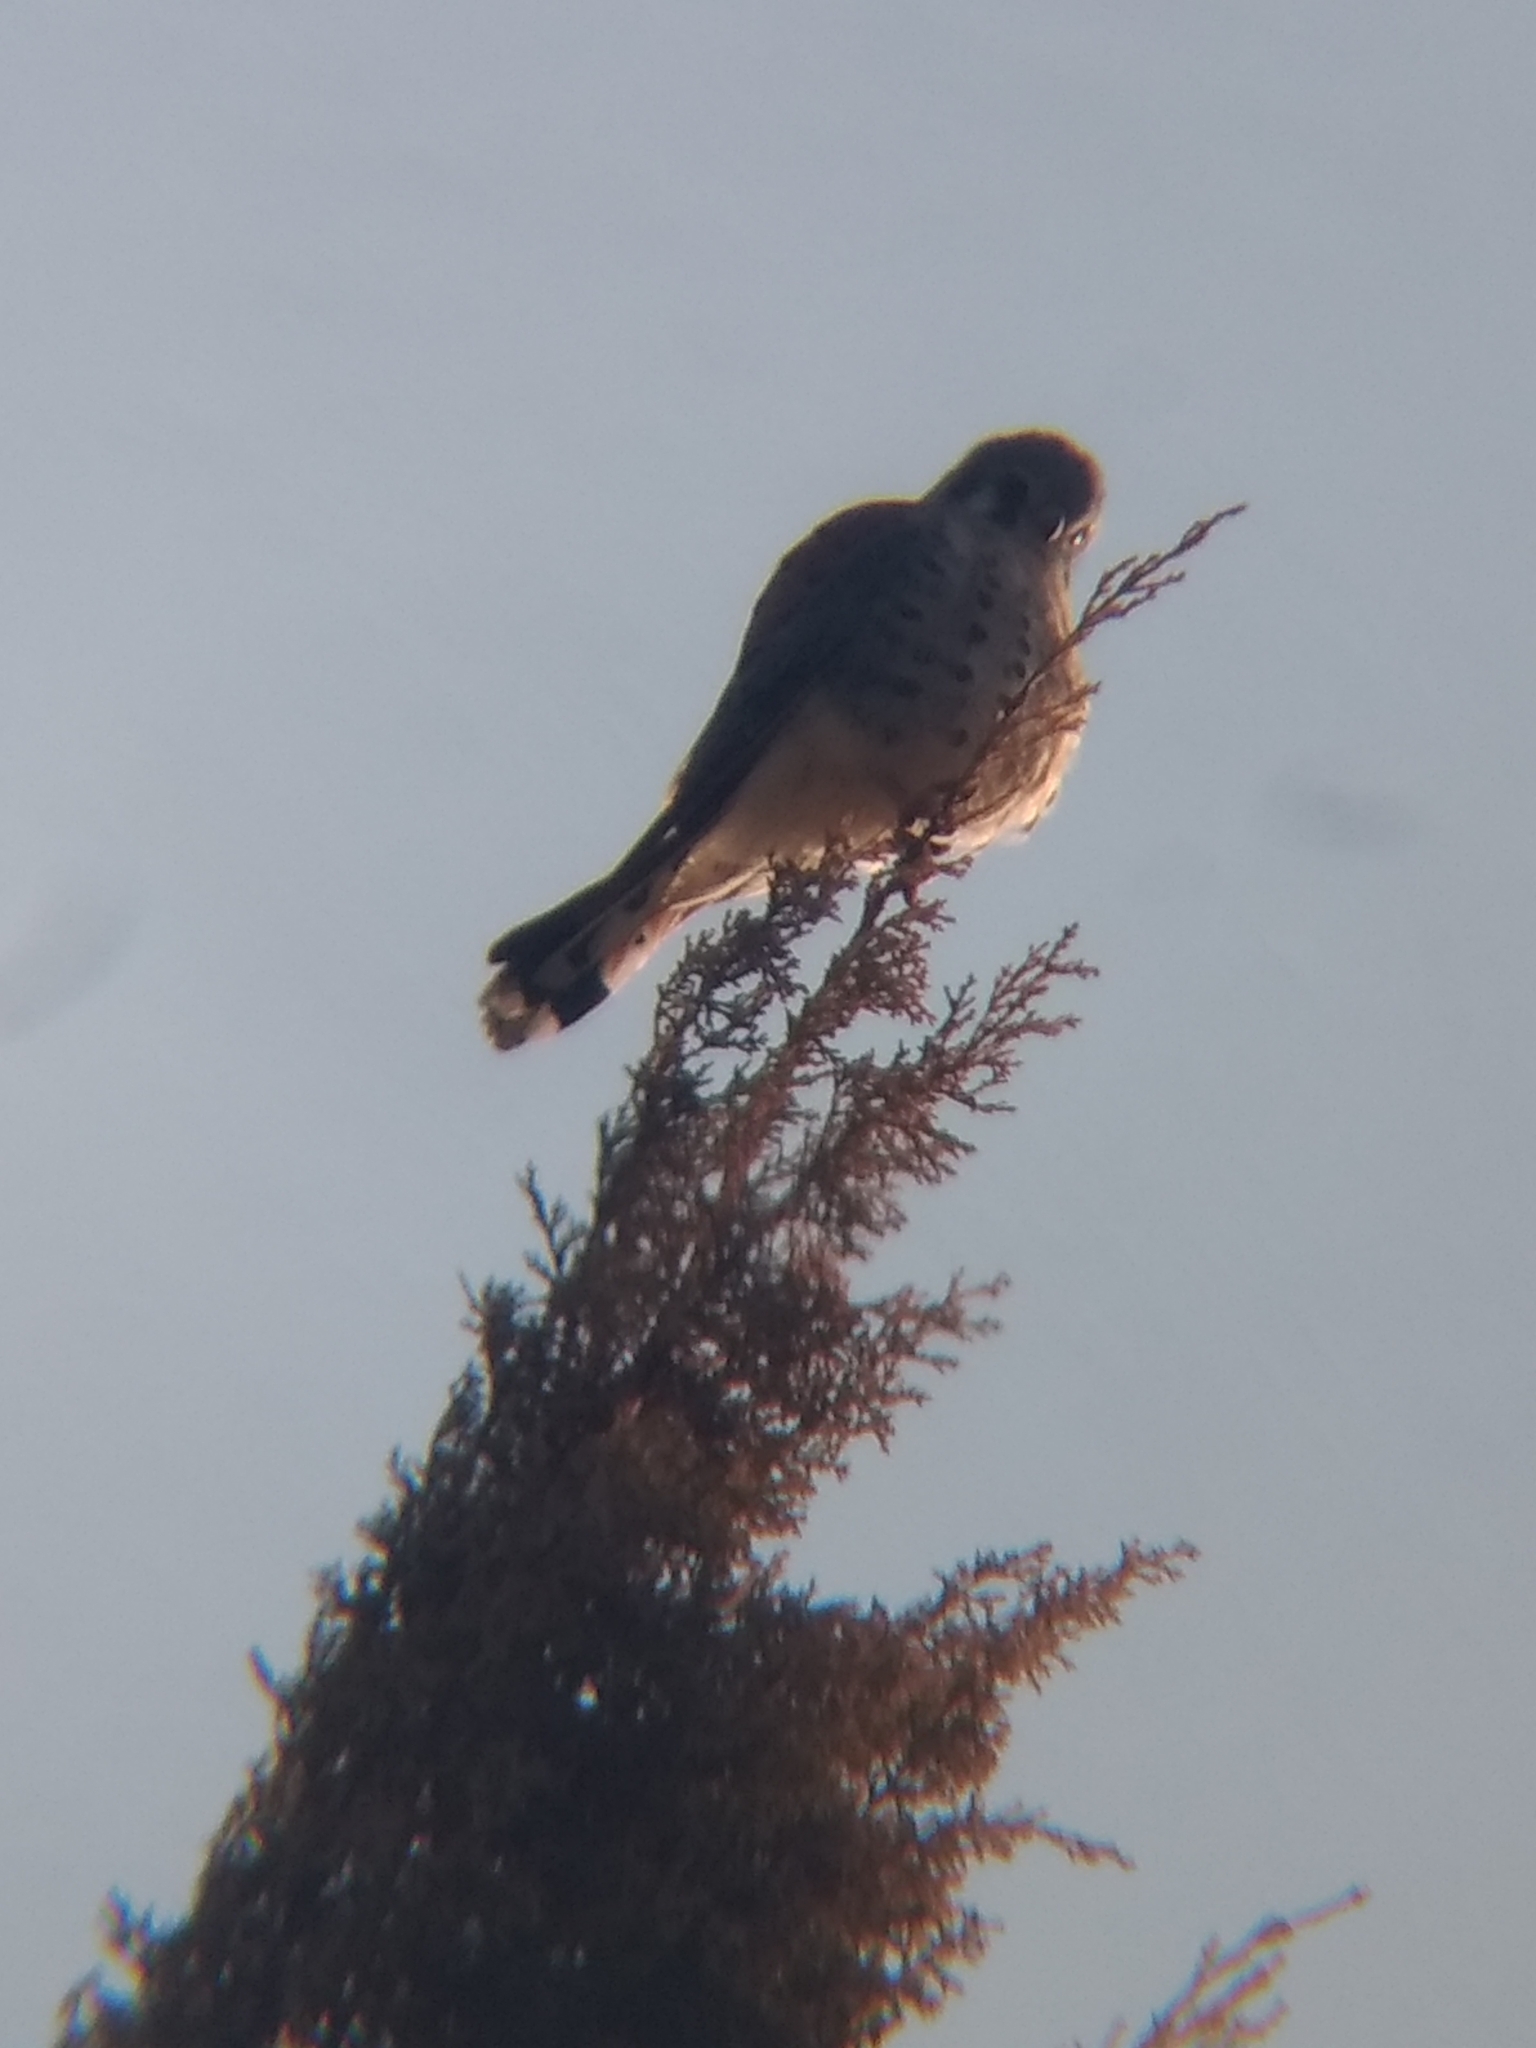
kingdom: Animalia
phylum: Chordata
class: Aves
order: Falconiformes
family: Falconidae
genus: Falco
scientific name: Falco sparverius
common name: American kestrel
